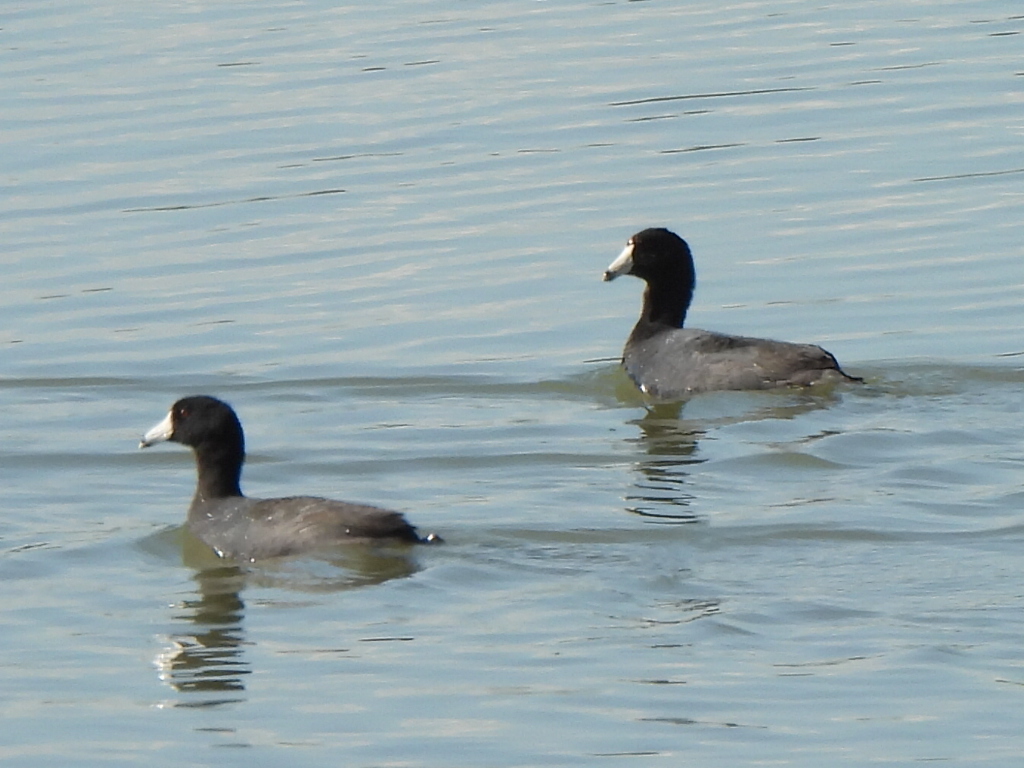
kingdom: Animalia
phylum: Chordata
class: Aves
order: Gruiformes
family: Rallidae
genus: Fulica
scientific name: Fulica americana
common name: American coot
